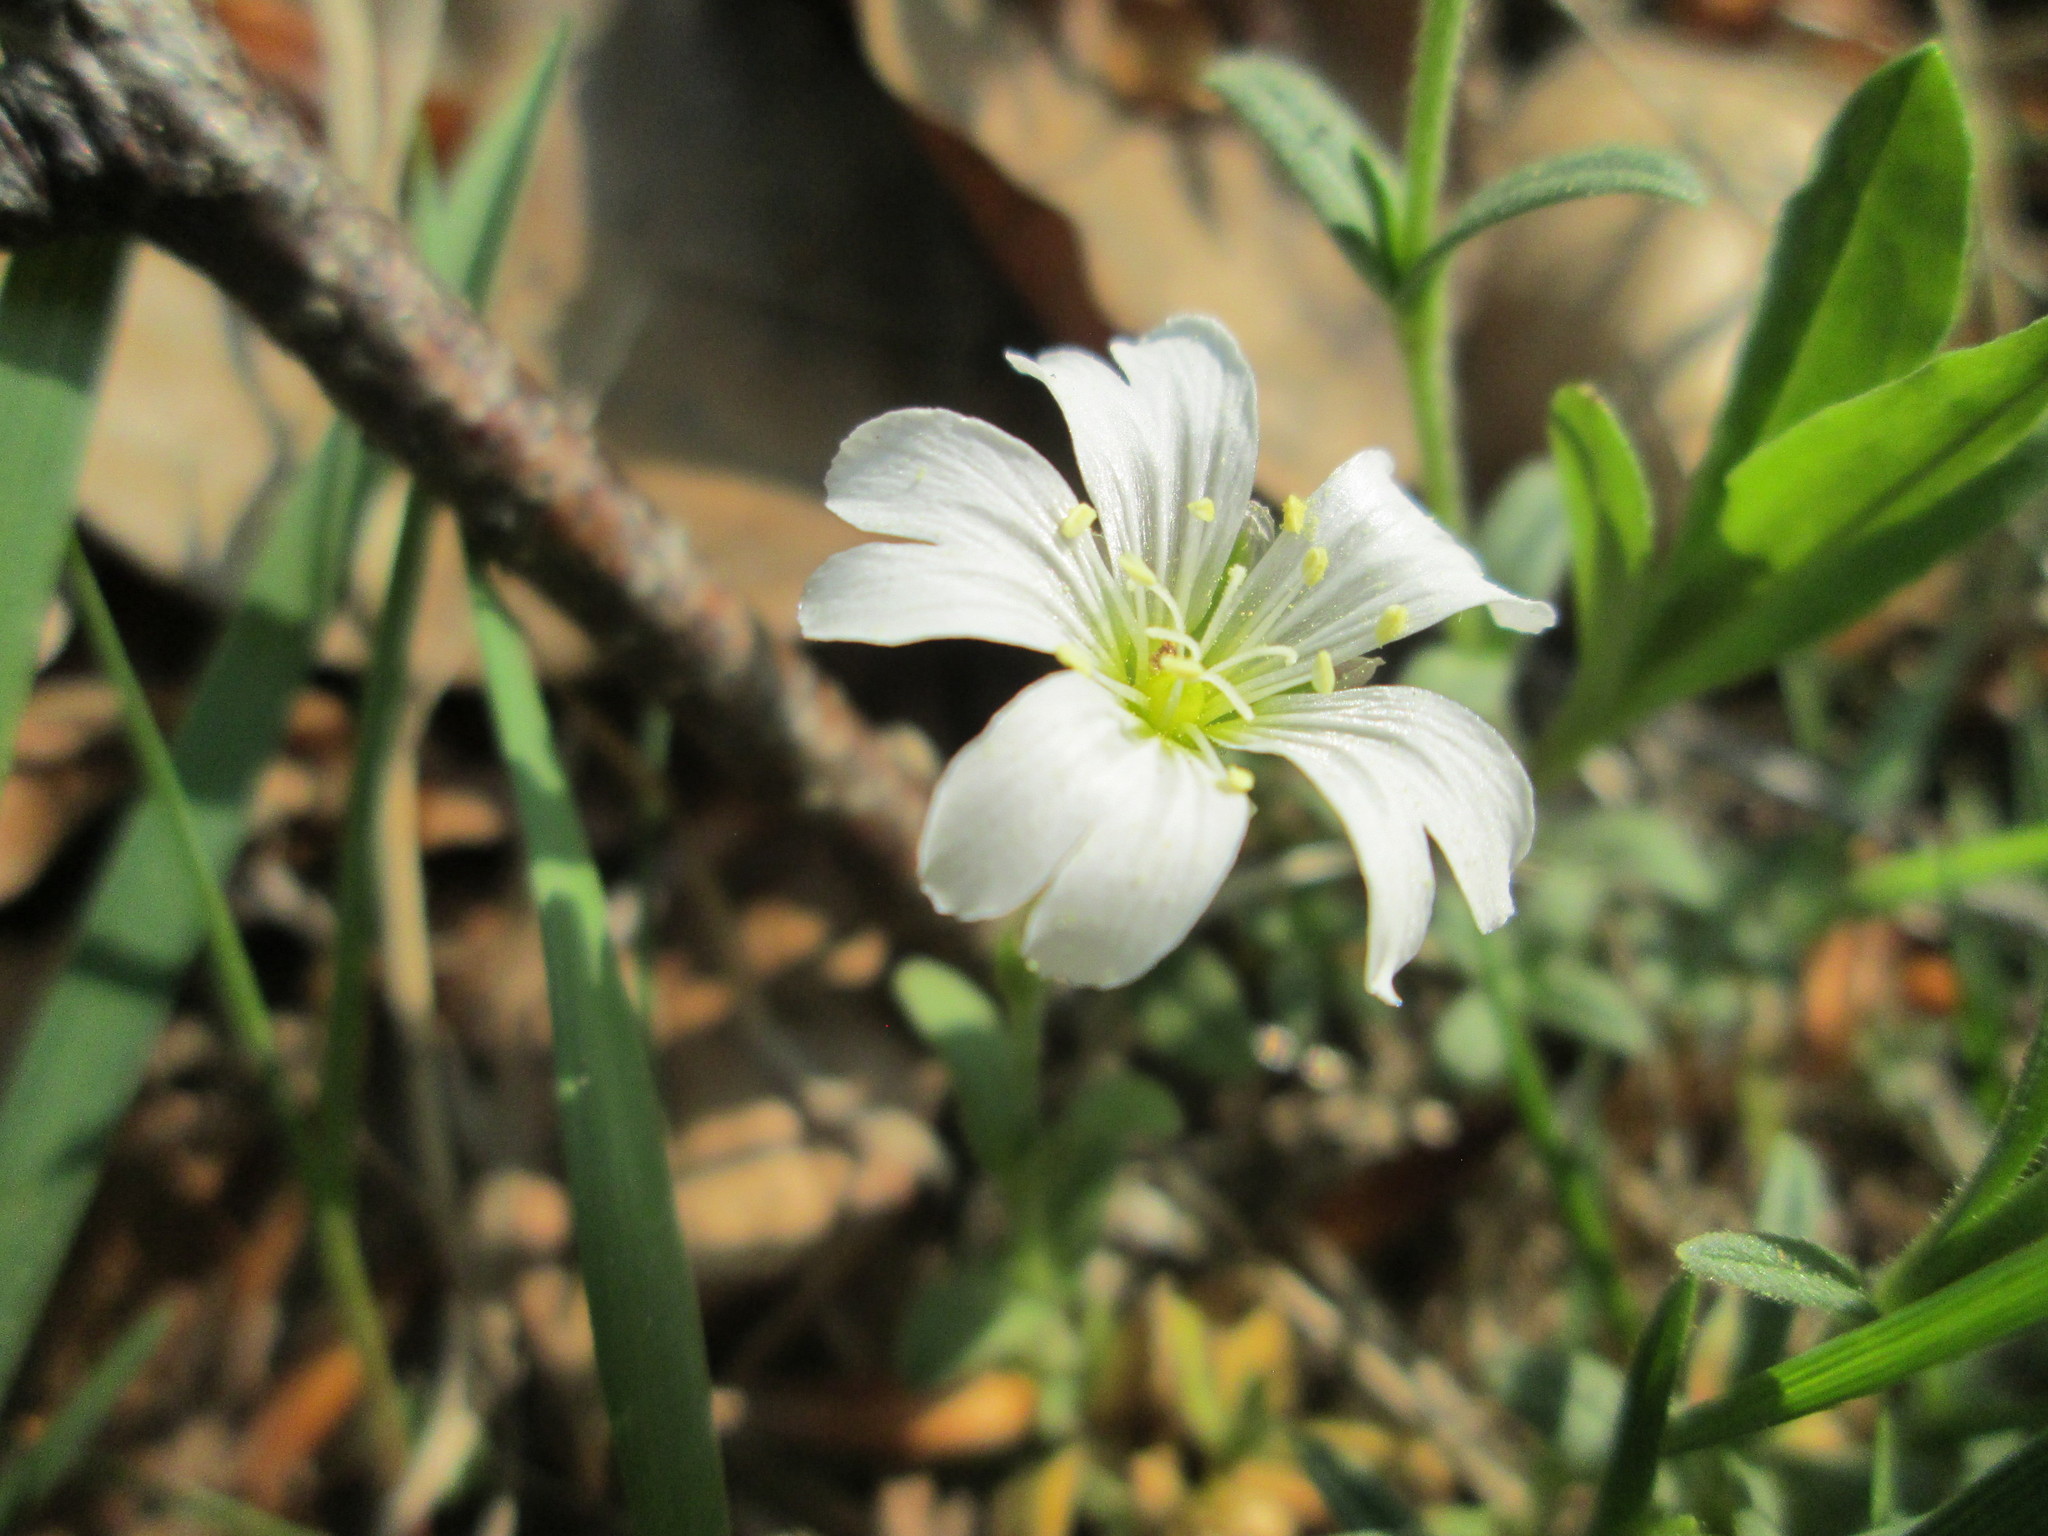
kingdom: Plantae
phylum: Tracheophyta
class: Magnoliopsida
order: Caryophyllales
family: Caryophyllaceae
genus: Cerastium
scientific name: Cerastium arvense
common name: Field mouse-ear
